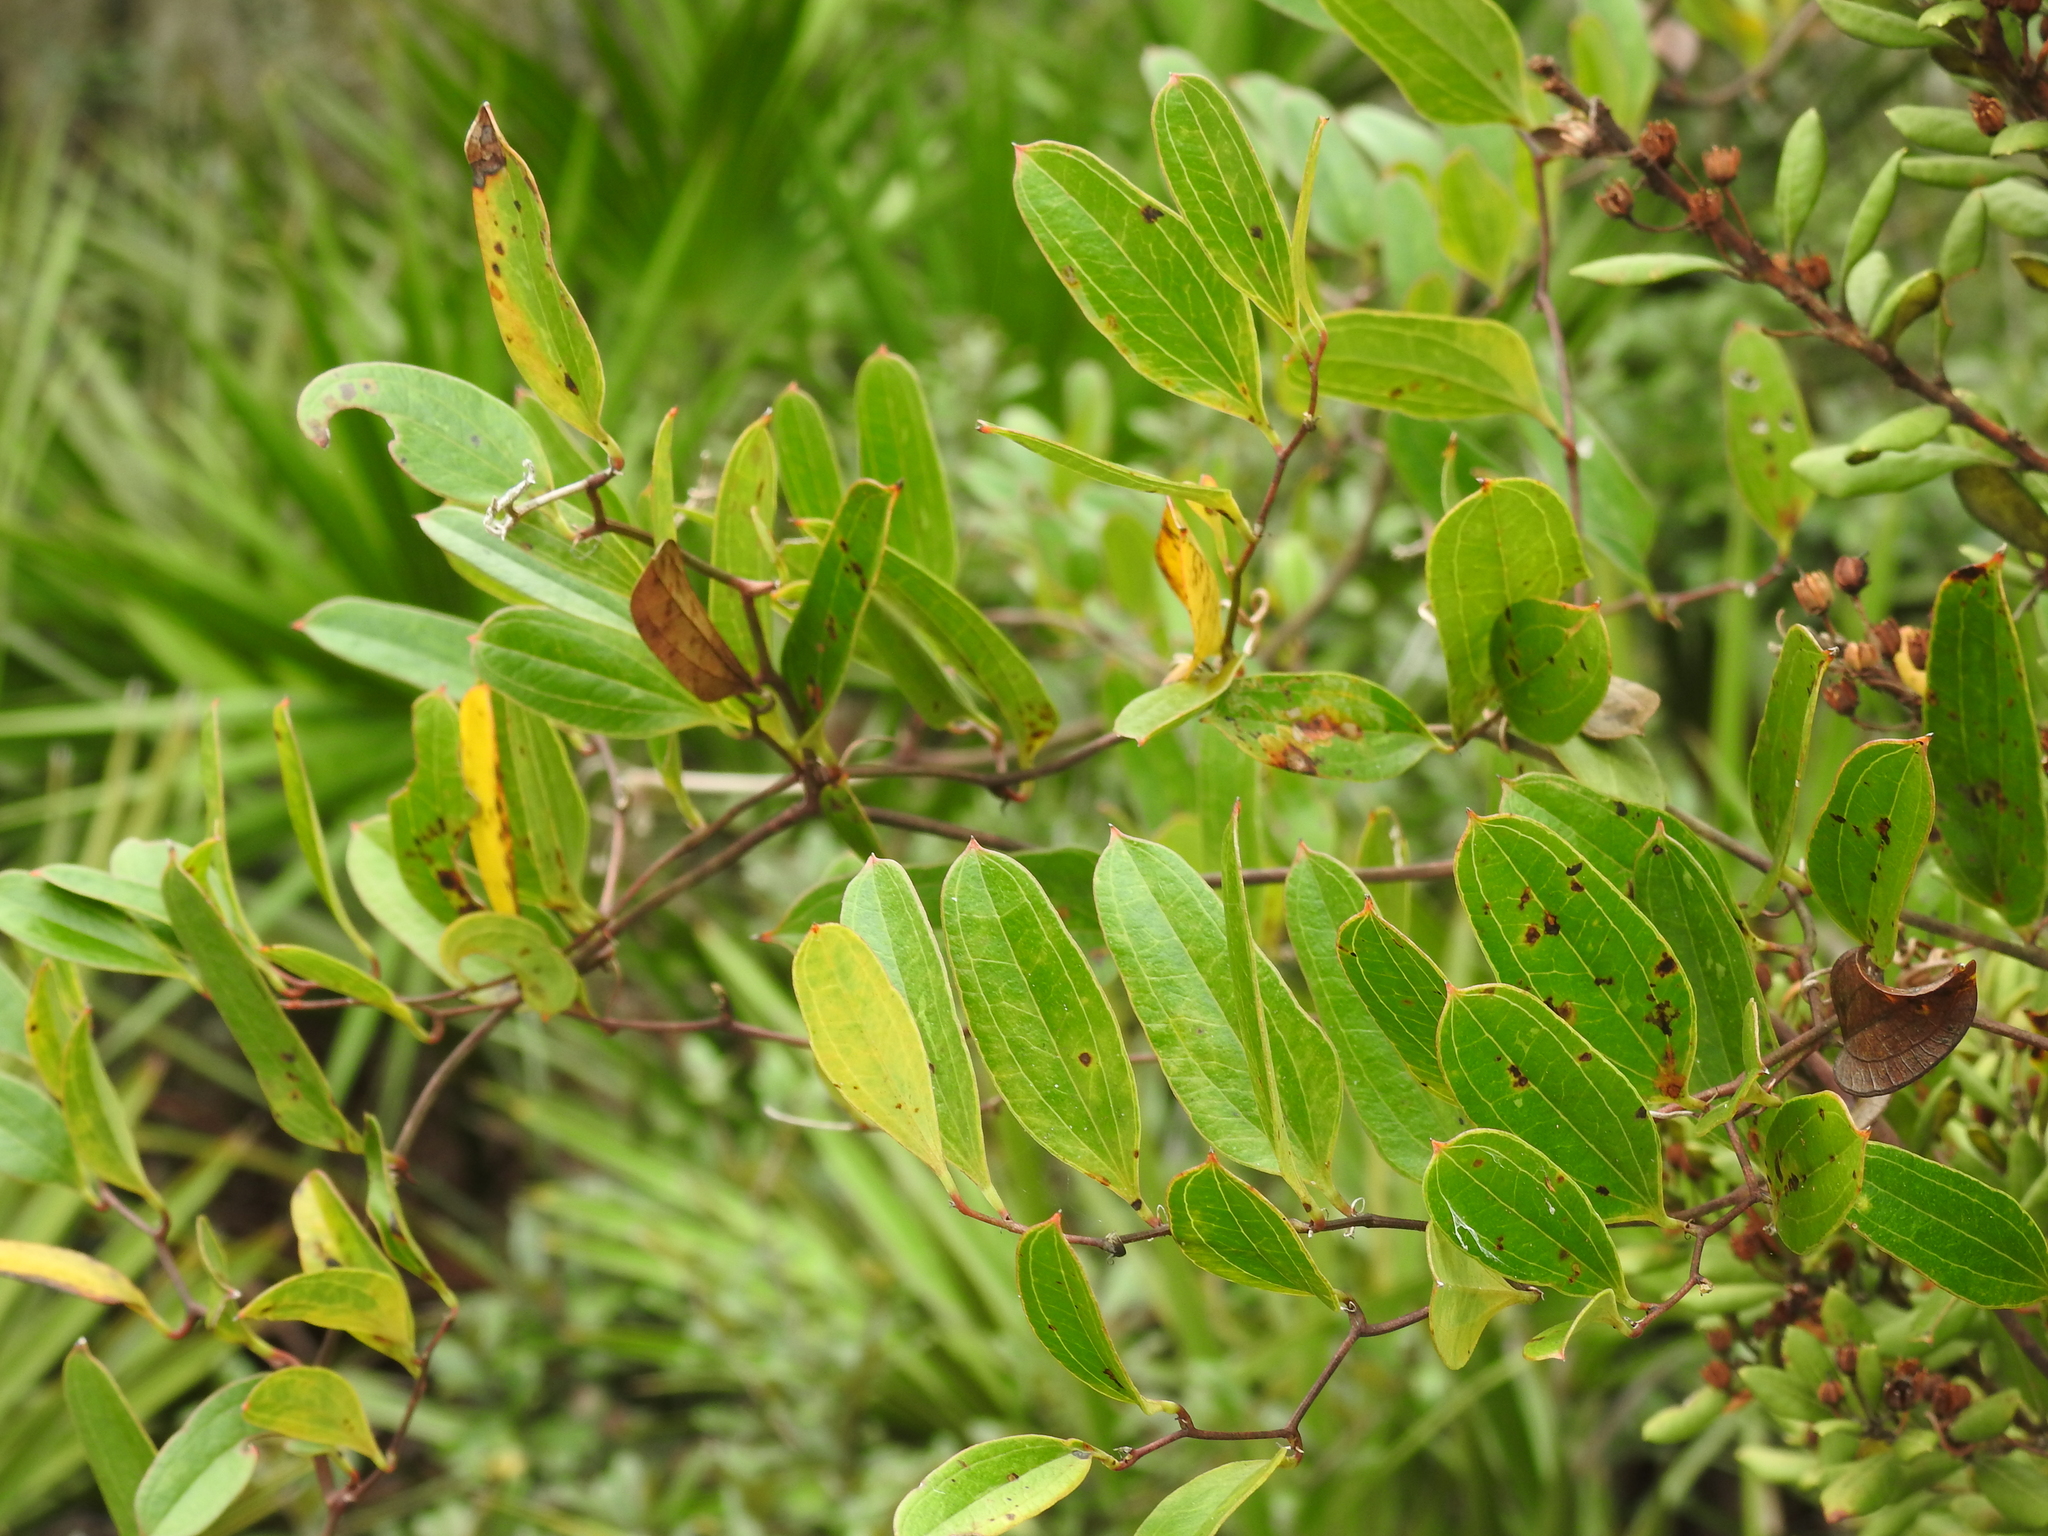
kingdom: Plantae
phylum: Tracheophyta
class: Liliopsida
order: Liliales
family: Smilacaceae
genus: Smilax
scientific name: Smilax auriculata
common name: Wild bamboo
